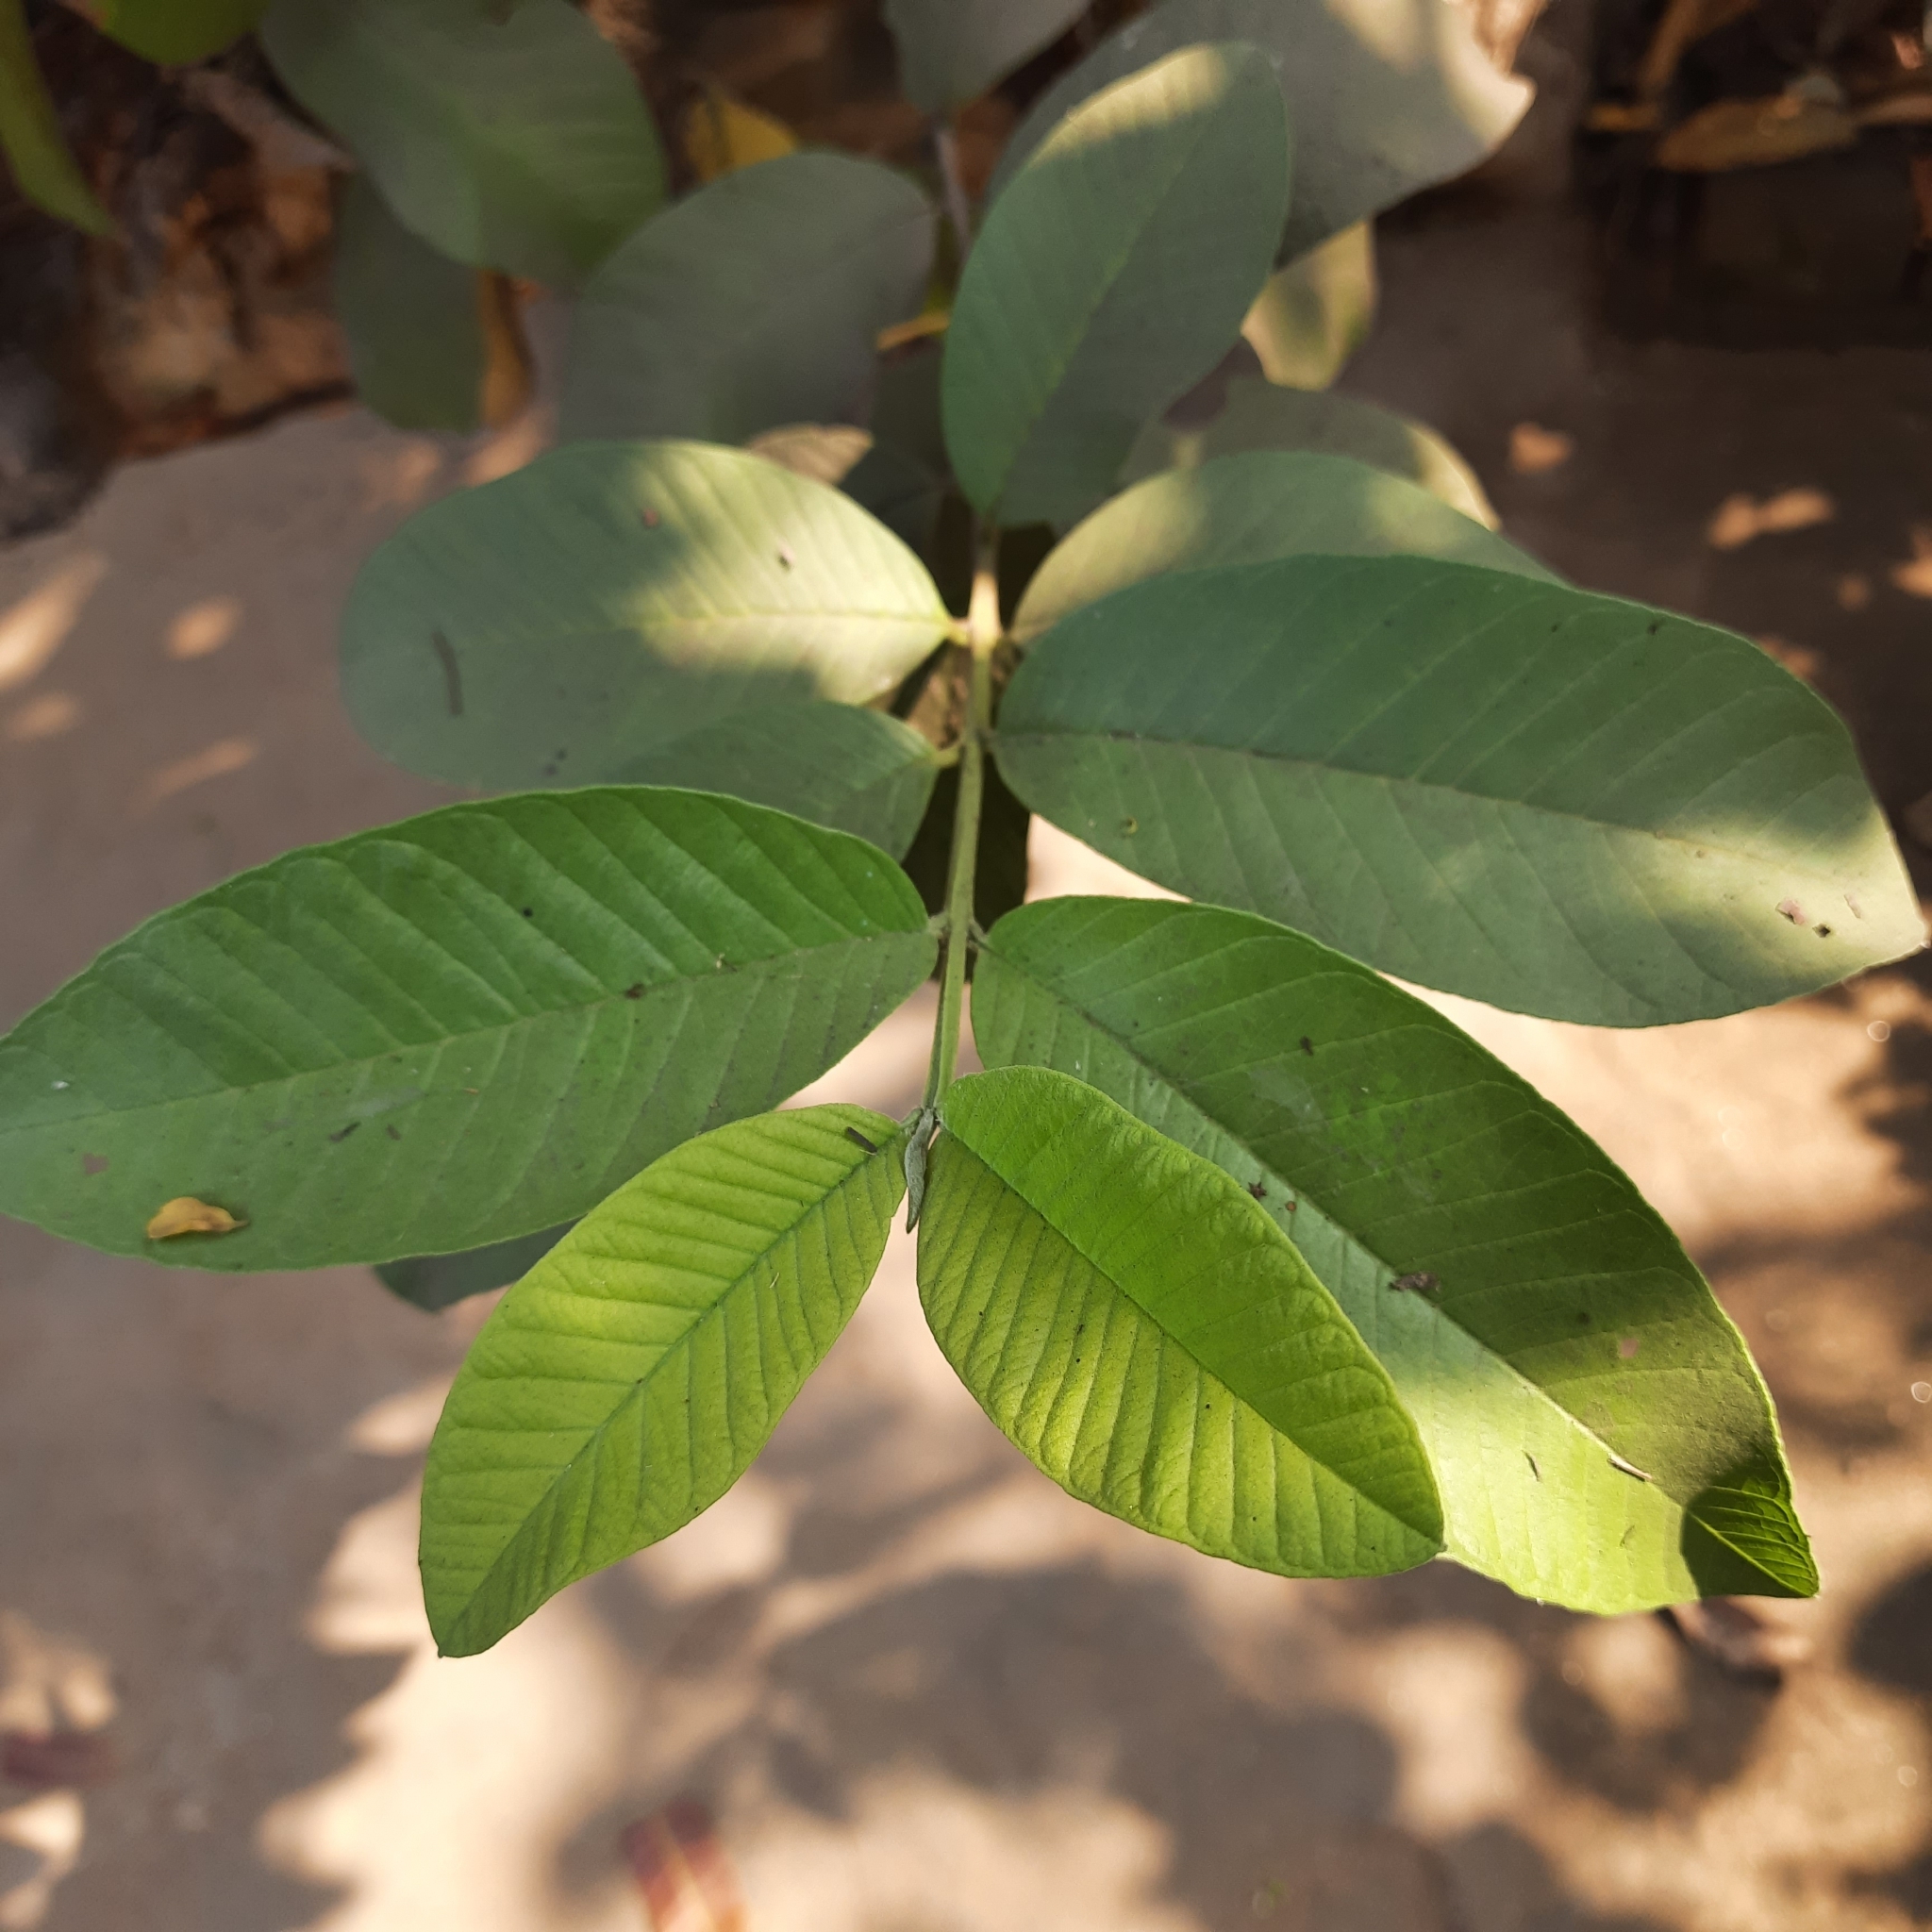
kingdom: Plantae
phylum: Tracheophyta
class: Magnoliopsida
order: Myrtales
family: Myrtaceae
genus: Psidium
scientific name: Psidium guajava
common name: Guava
